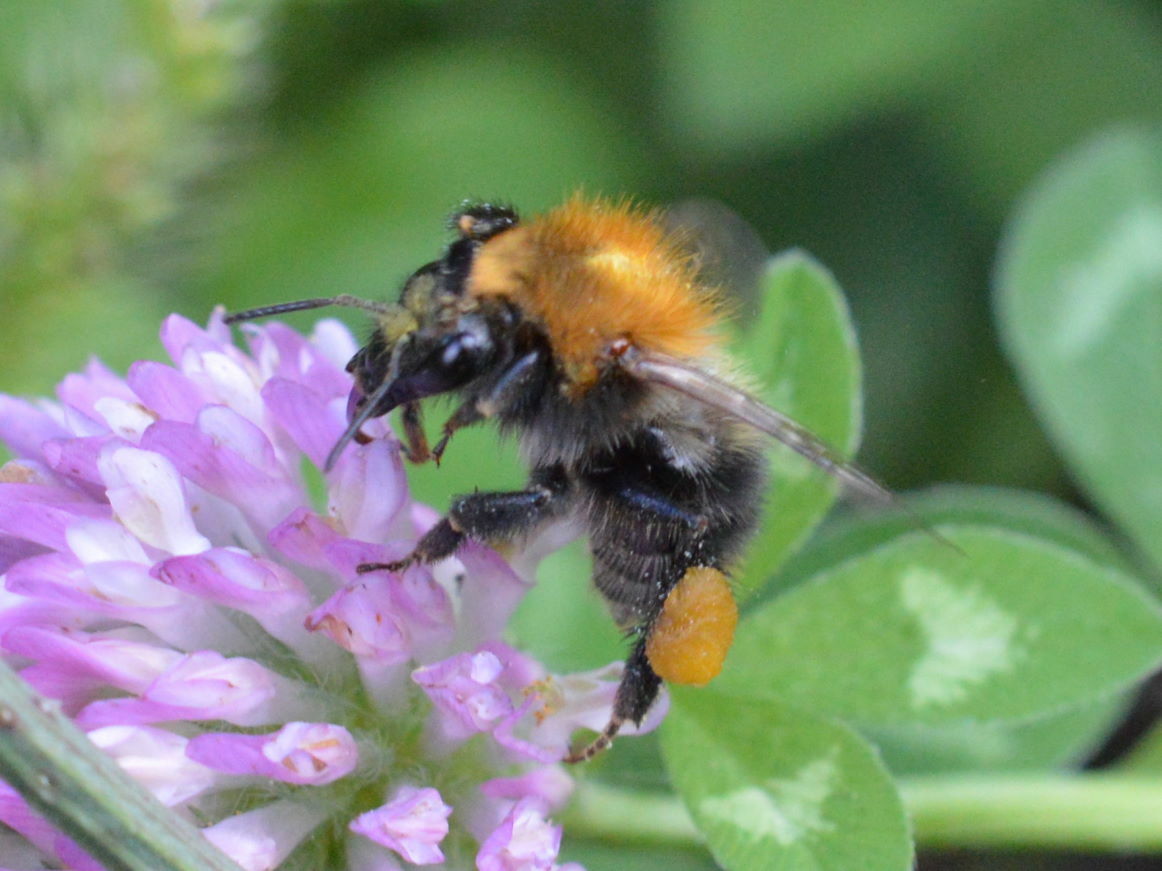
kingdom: Animalia
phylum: Arthropoda
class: Insecta
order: Hymenoptera
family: Apidae
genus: Bombus
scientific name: Bombus pascuorum
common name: Common carder bee
